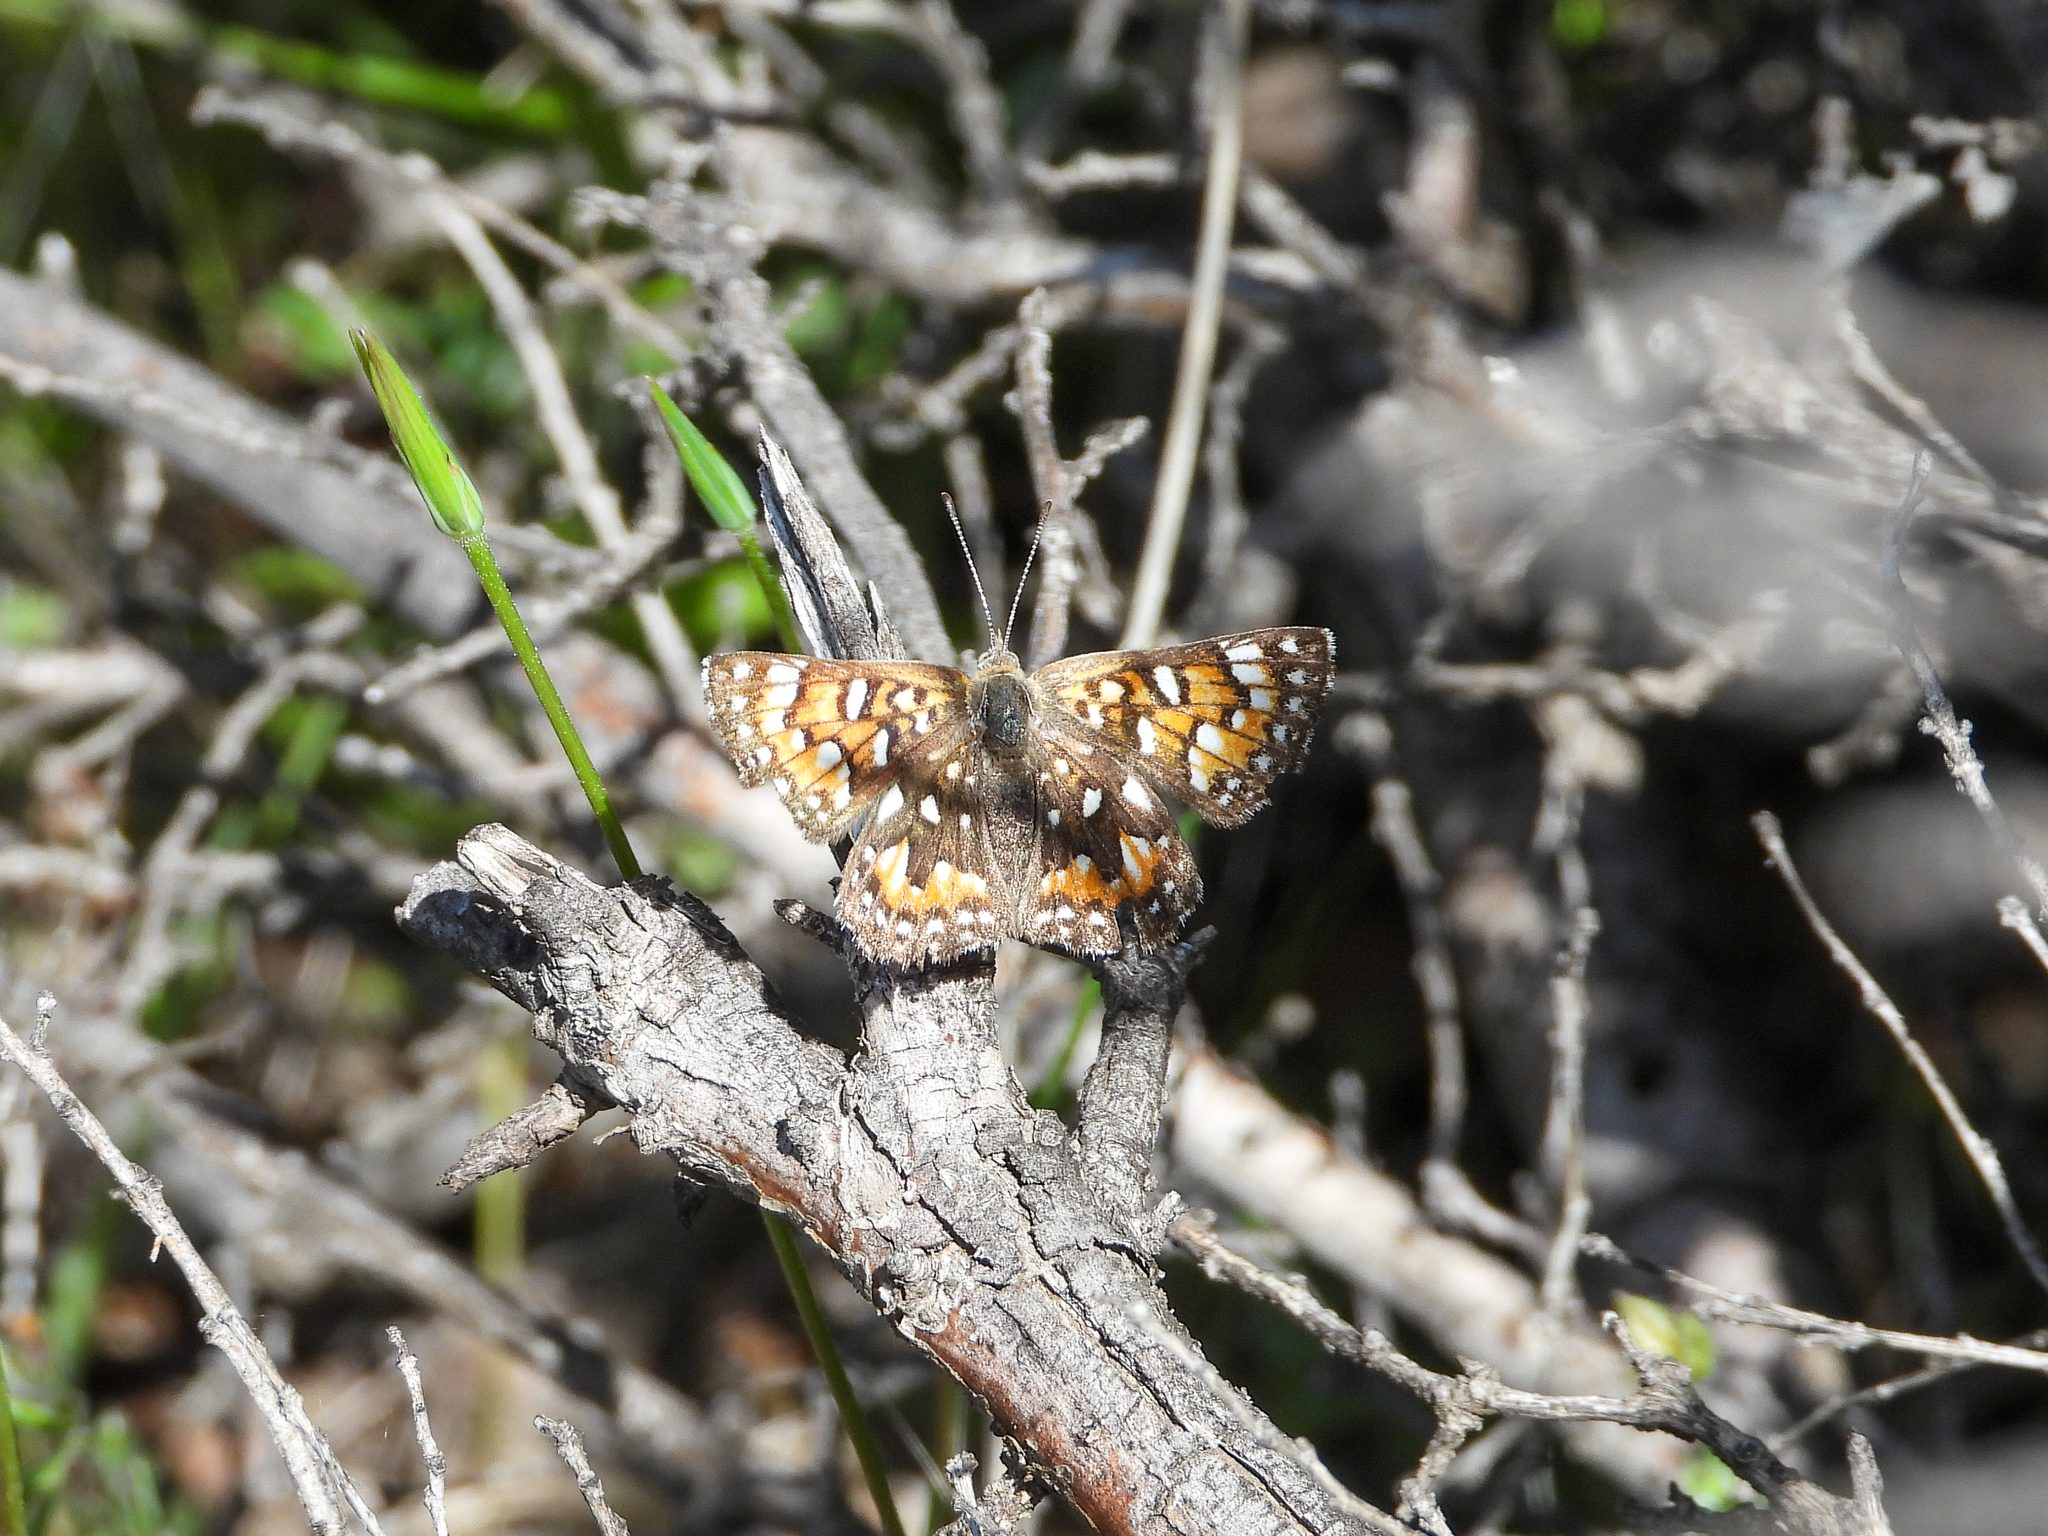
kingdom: Animalia
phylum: Arthropoda
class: Insecta
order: Lepidoptera
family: Riodinidae
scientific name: Riodinidae
